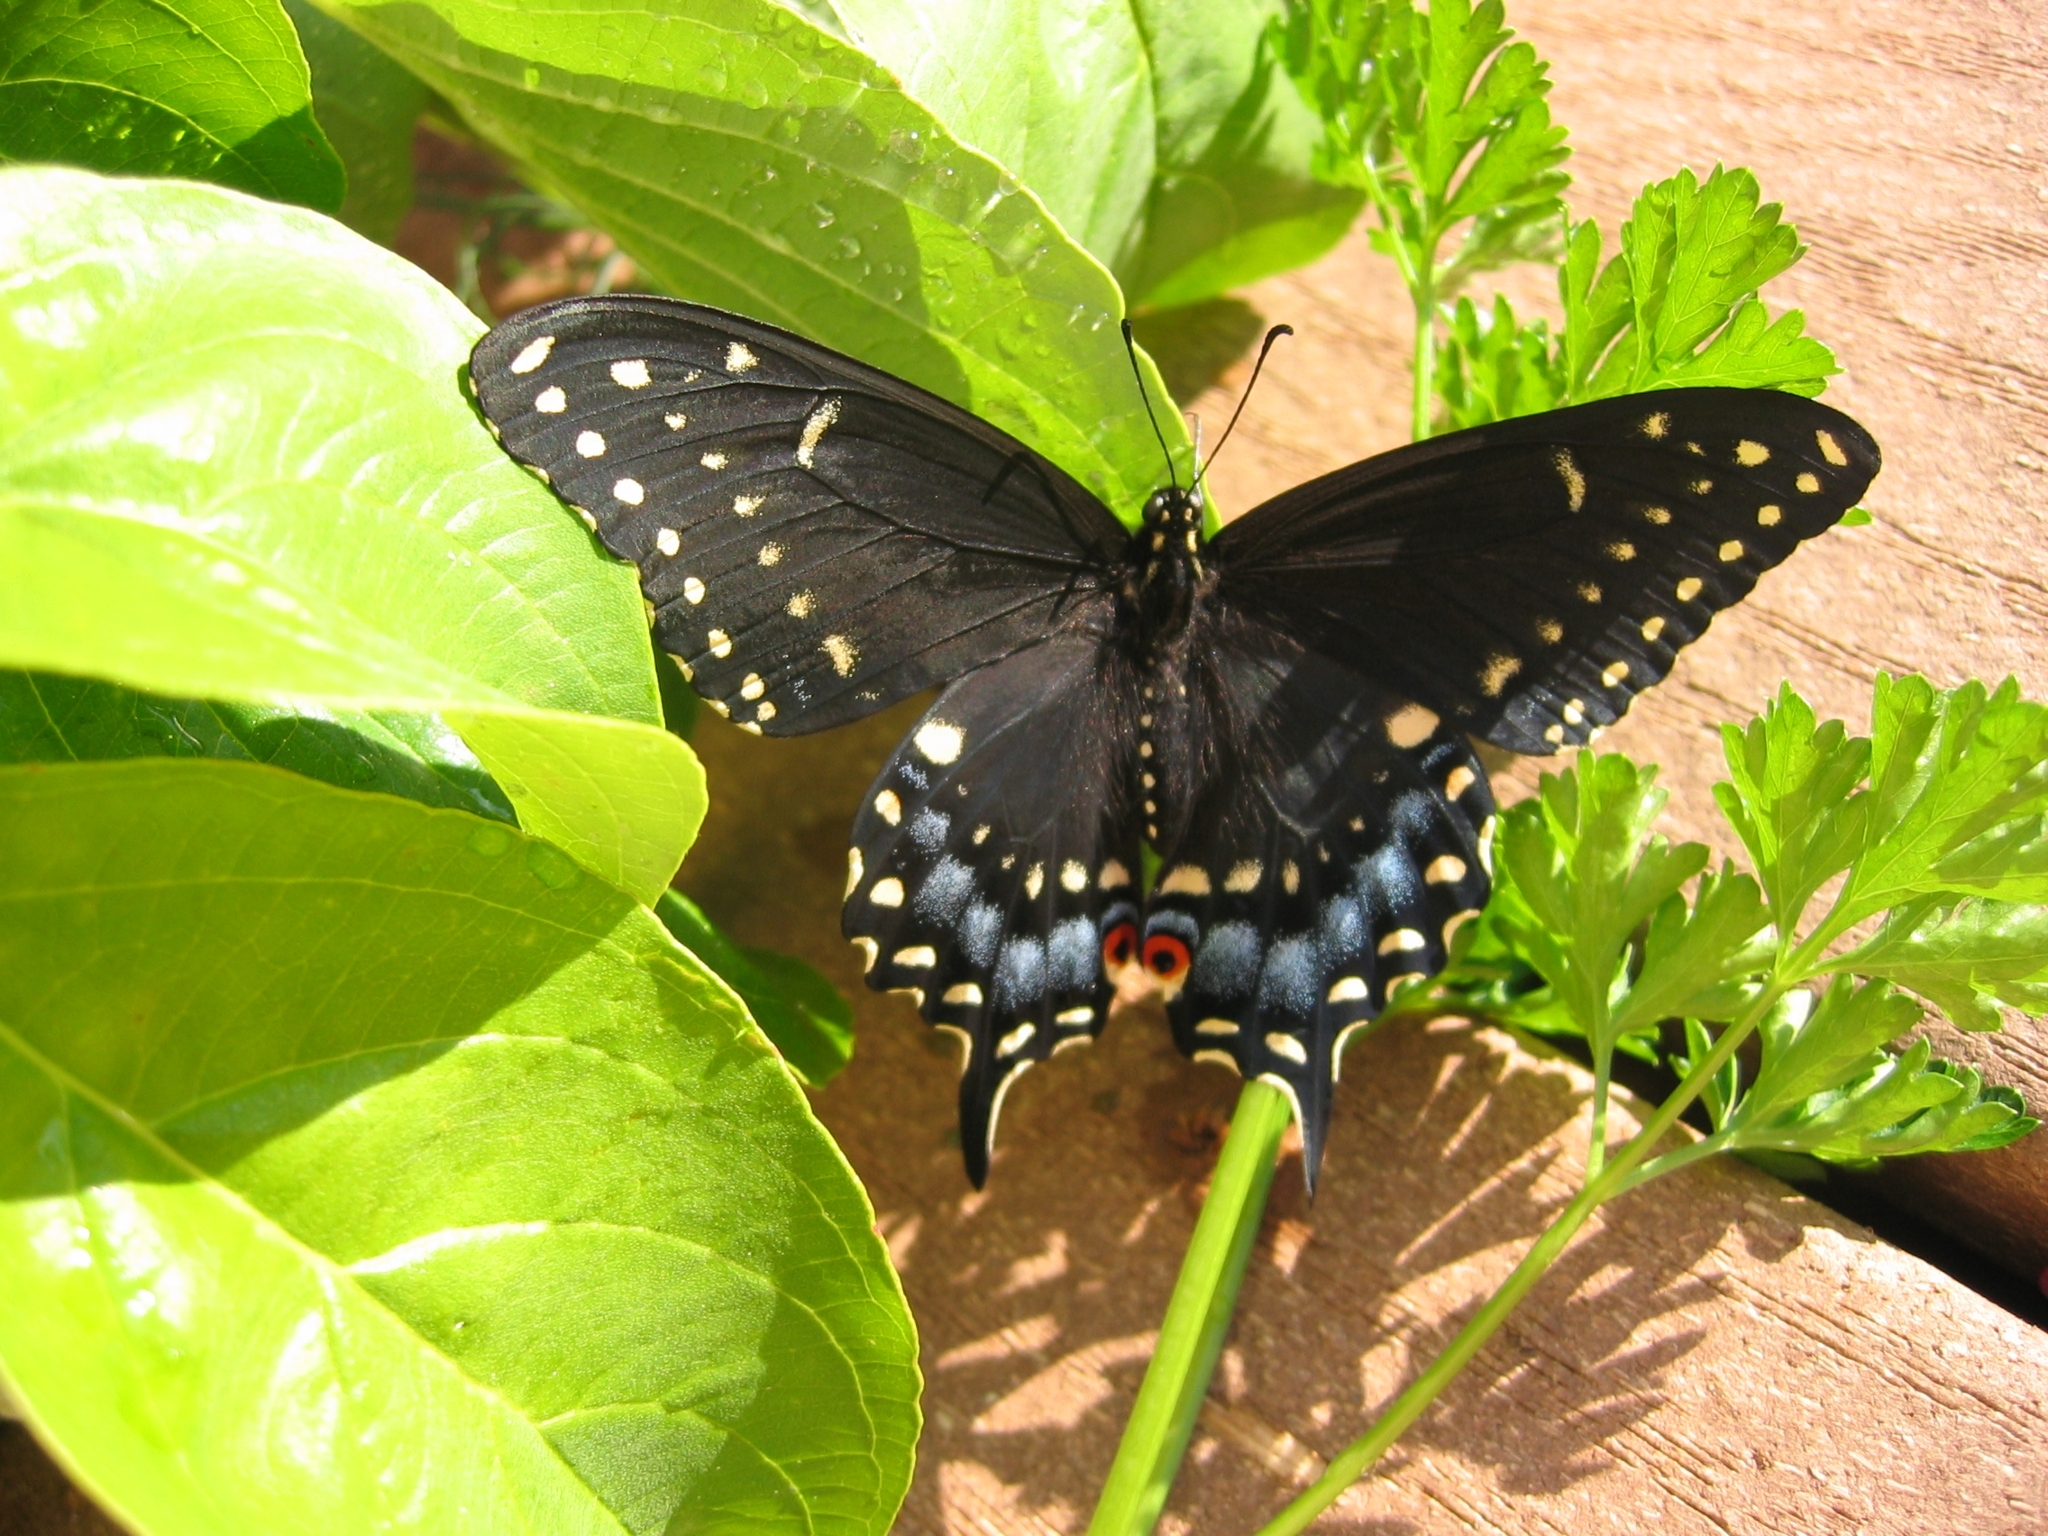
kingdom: Animalia
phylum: Arthropoda
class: Insecta
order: Lepidoptera
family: Papilionidae
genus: Papilio
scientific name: Papilio polyxenes
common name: Black swallowtail
